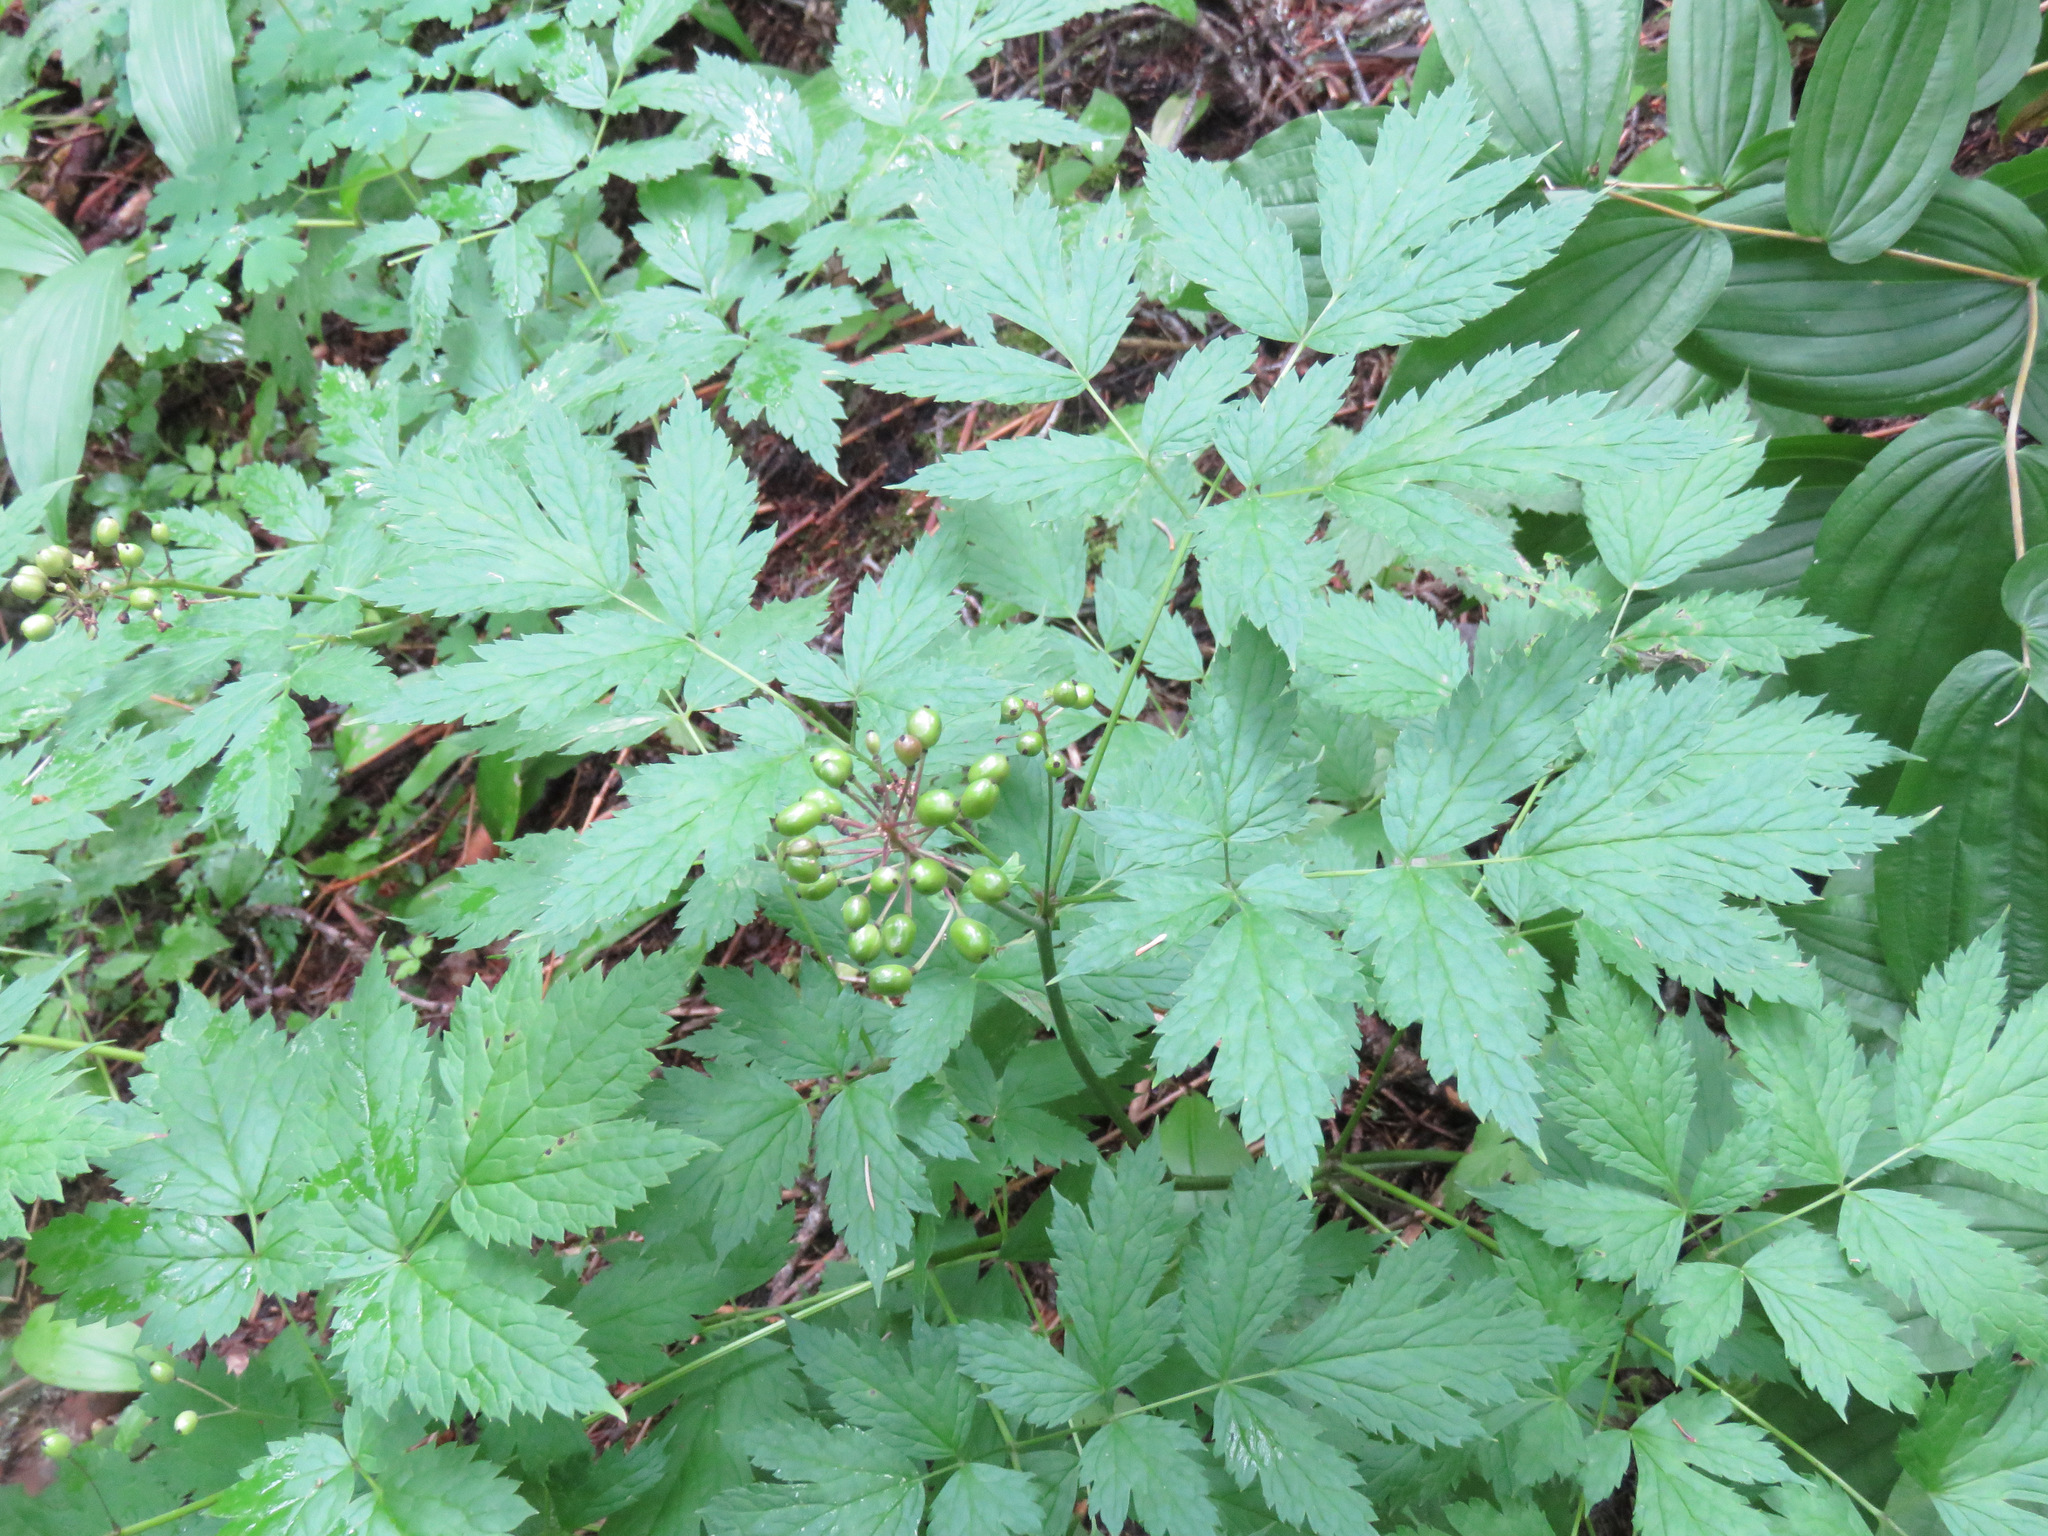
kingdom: Plantae
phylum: Tracheophyta
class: Magnoliopsida
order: Ranunculales
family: Ranunculaceae
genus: Actaea
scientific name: Actaea rubra
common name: Red baneberry
